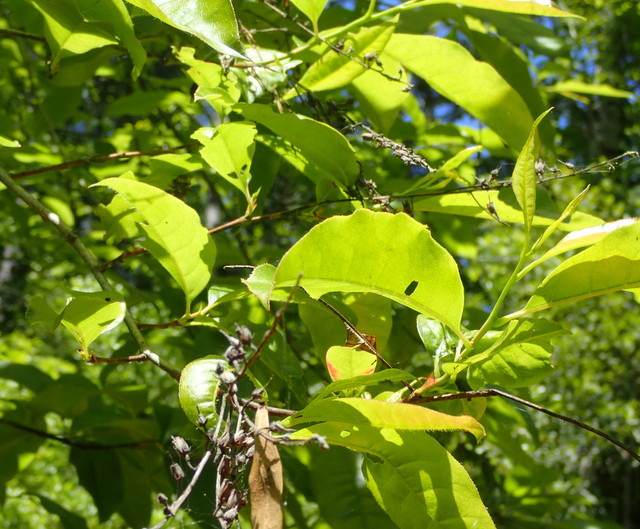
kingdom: Plantae
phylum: Tracheophyta
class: Magnoliopsida
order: Ericales
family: Ericaceae
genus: Oxydendrum
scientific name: Oxydendrum arboreum
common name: Sourwood
